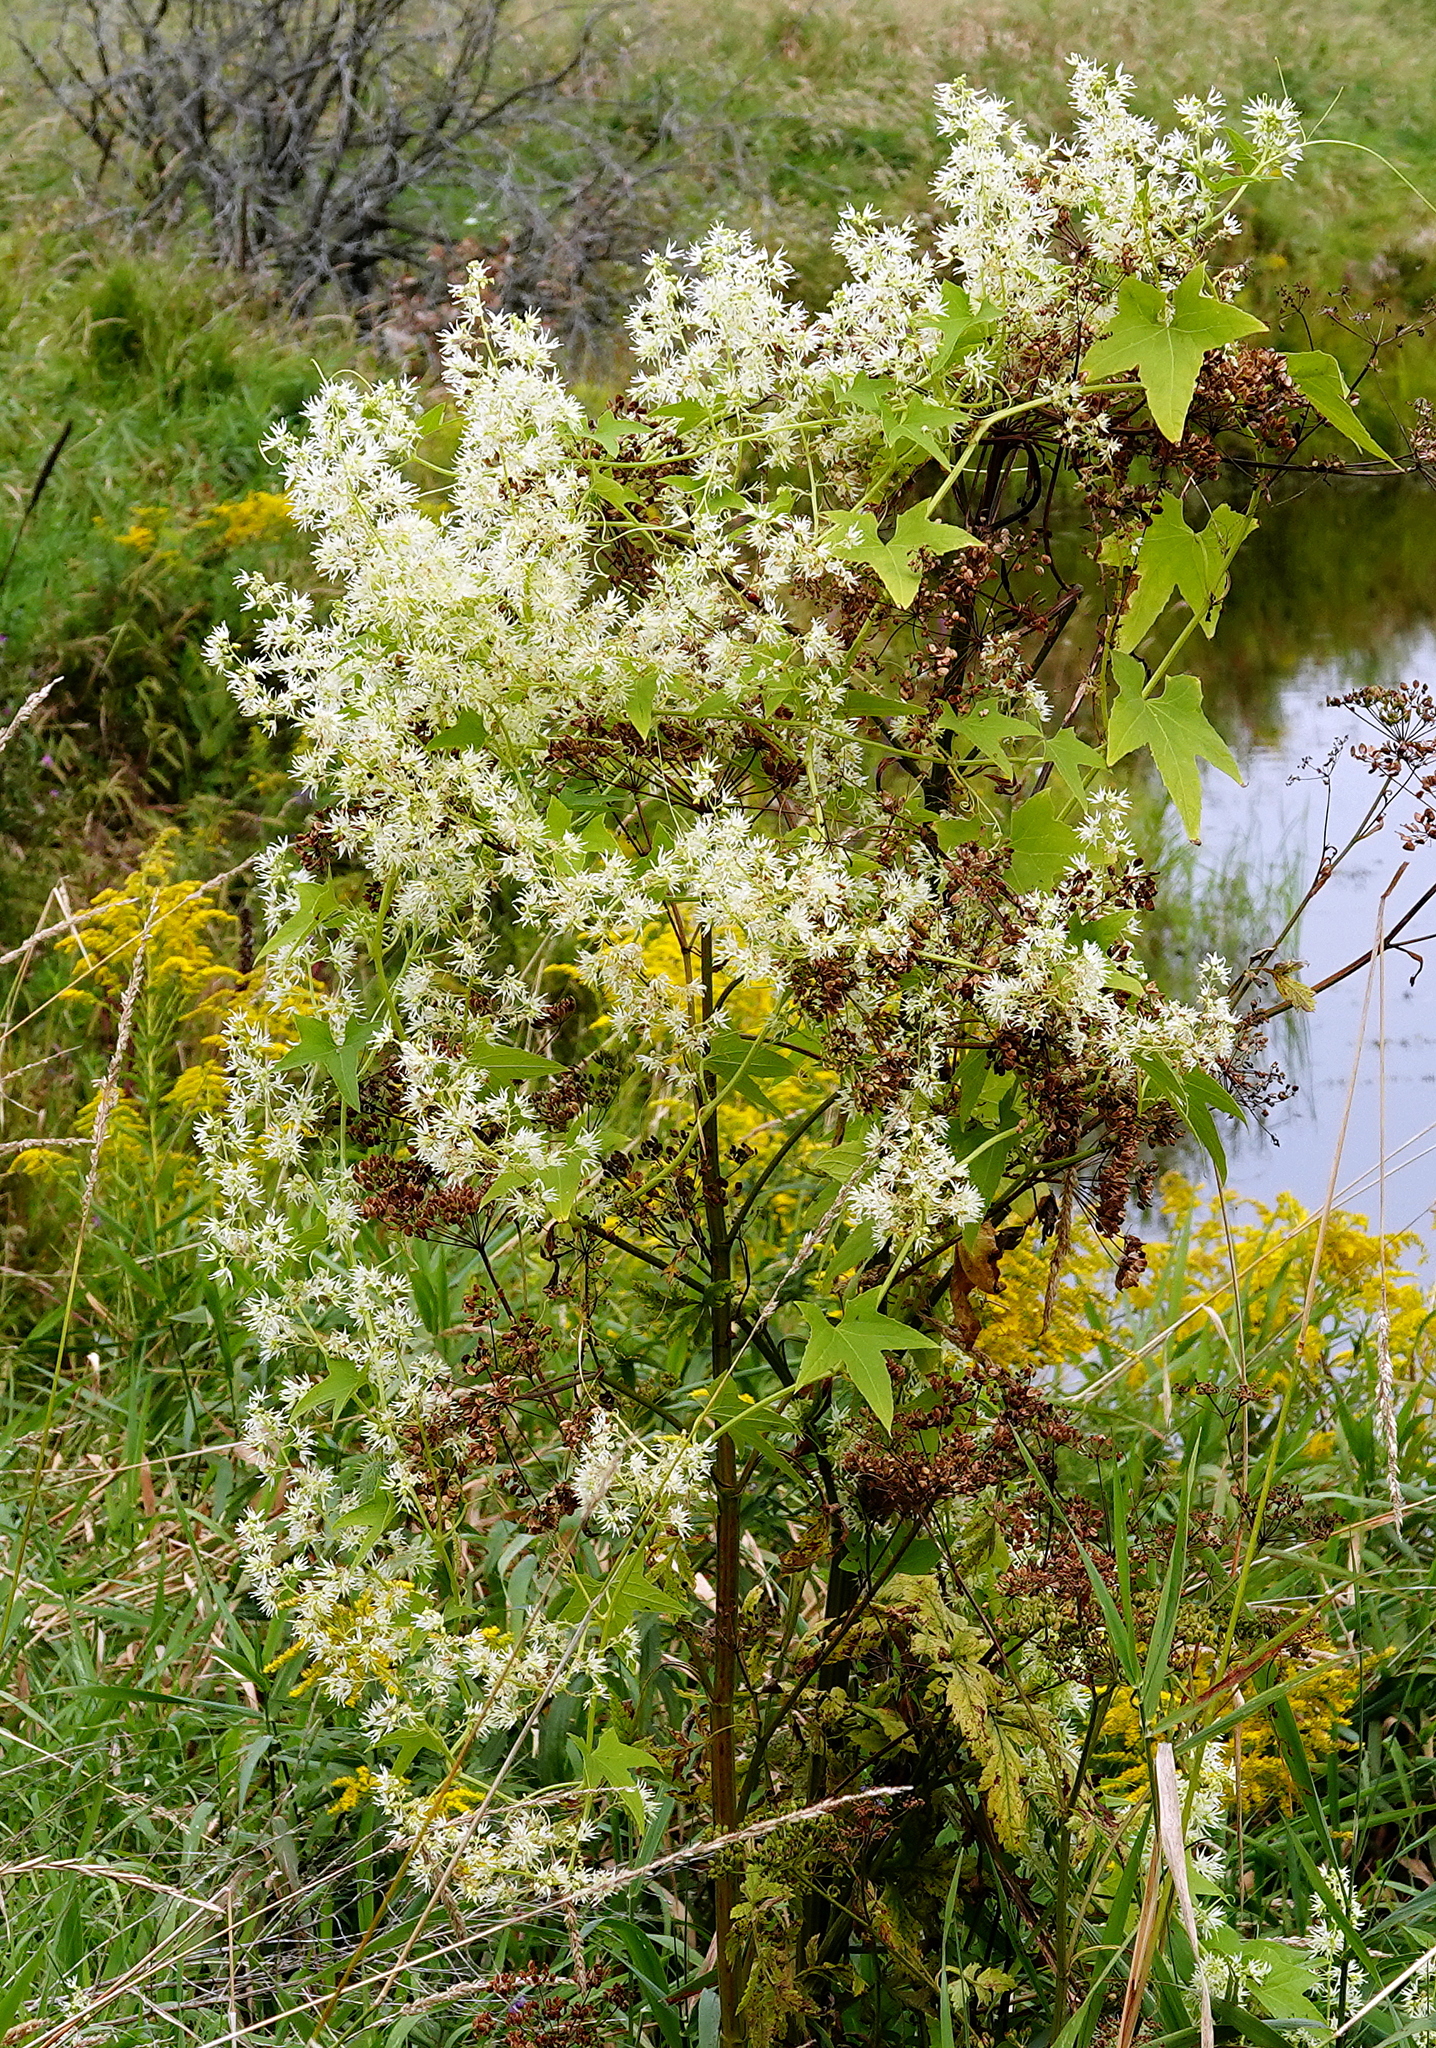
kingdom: Plantae
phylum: Tracheophyta
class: Magnoliopsida
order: Cucurbitales
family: Cucurbitaceae
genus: Echinocystis
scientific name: Echinocystis lobata
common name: Wild cucumber
